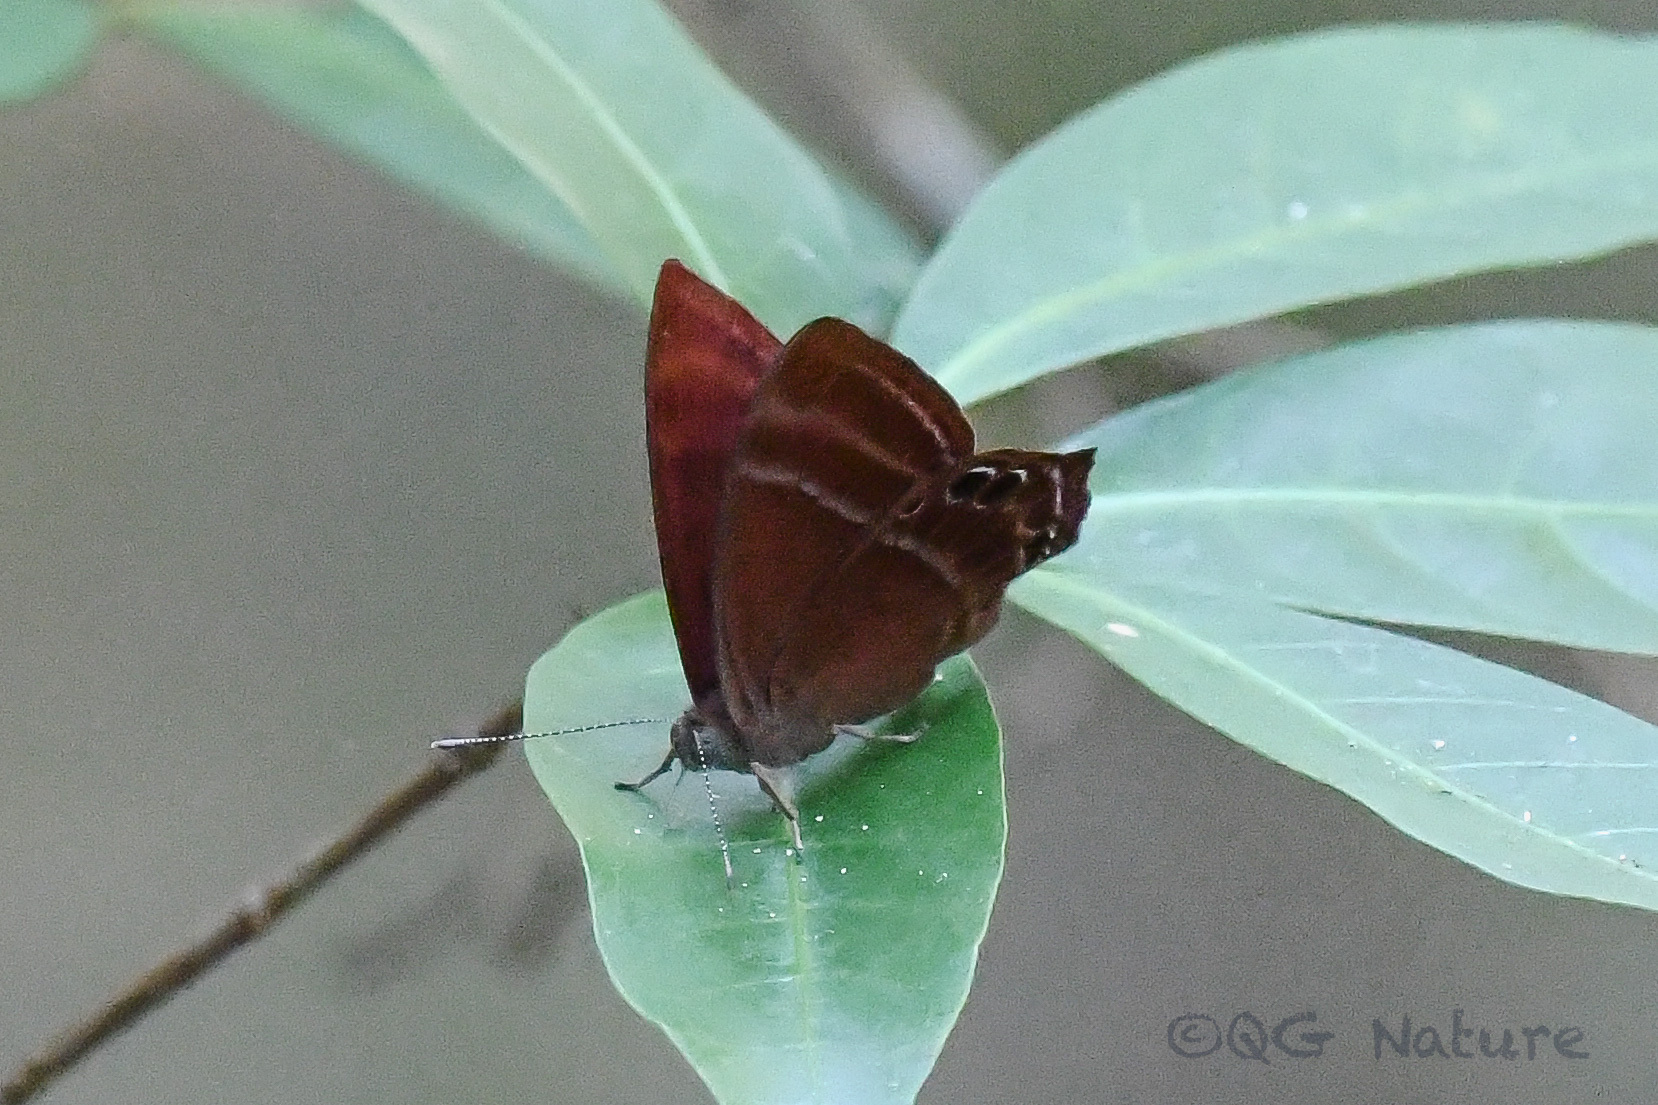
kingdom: Animalia
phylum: Arthropoda
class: Insecta
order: Lepidoptera
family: Lycaenidae
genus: Abisara
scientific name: Abisara echeria
